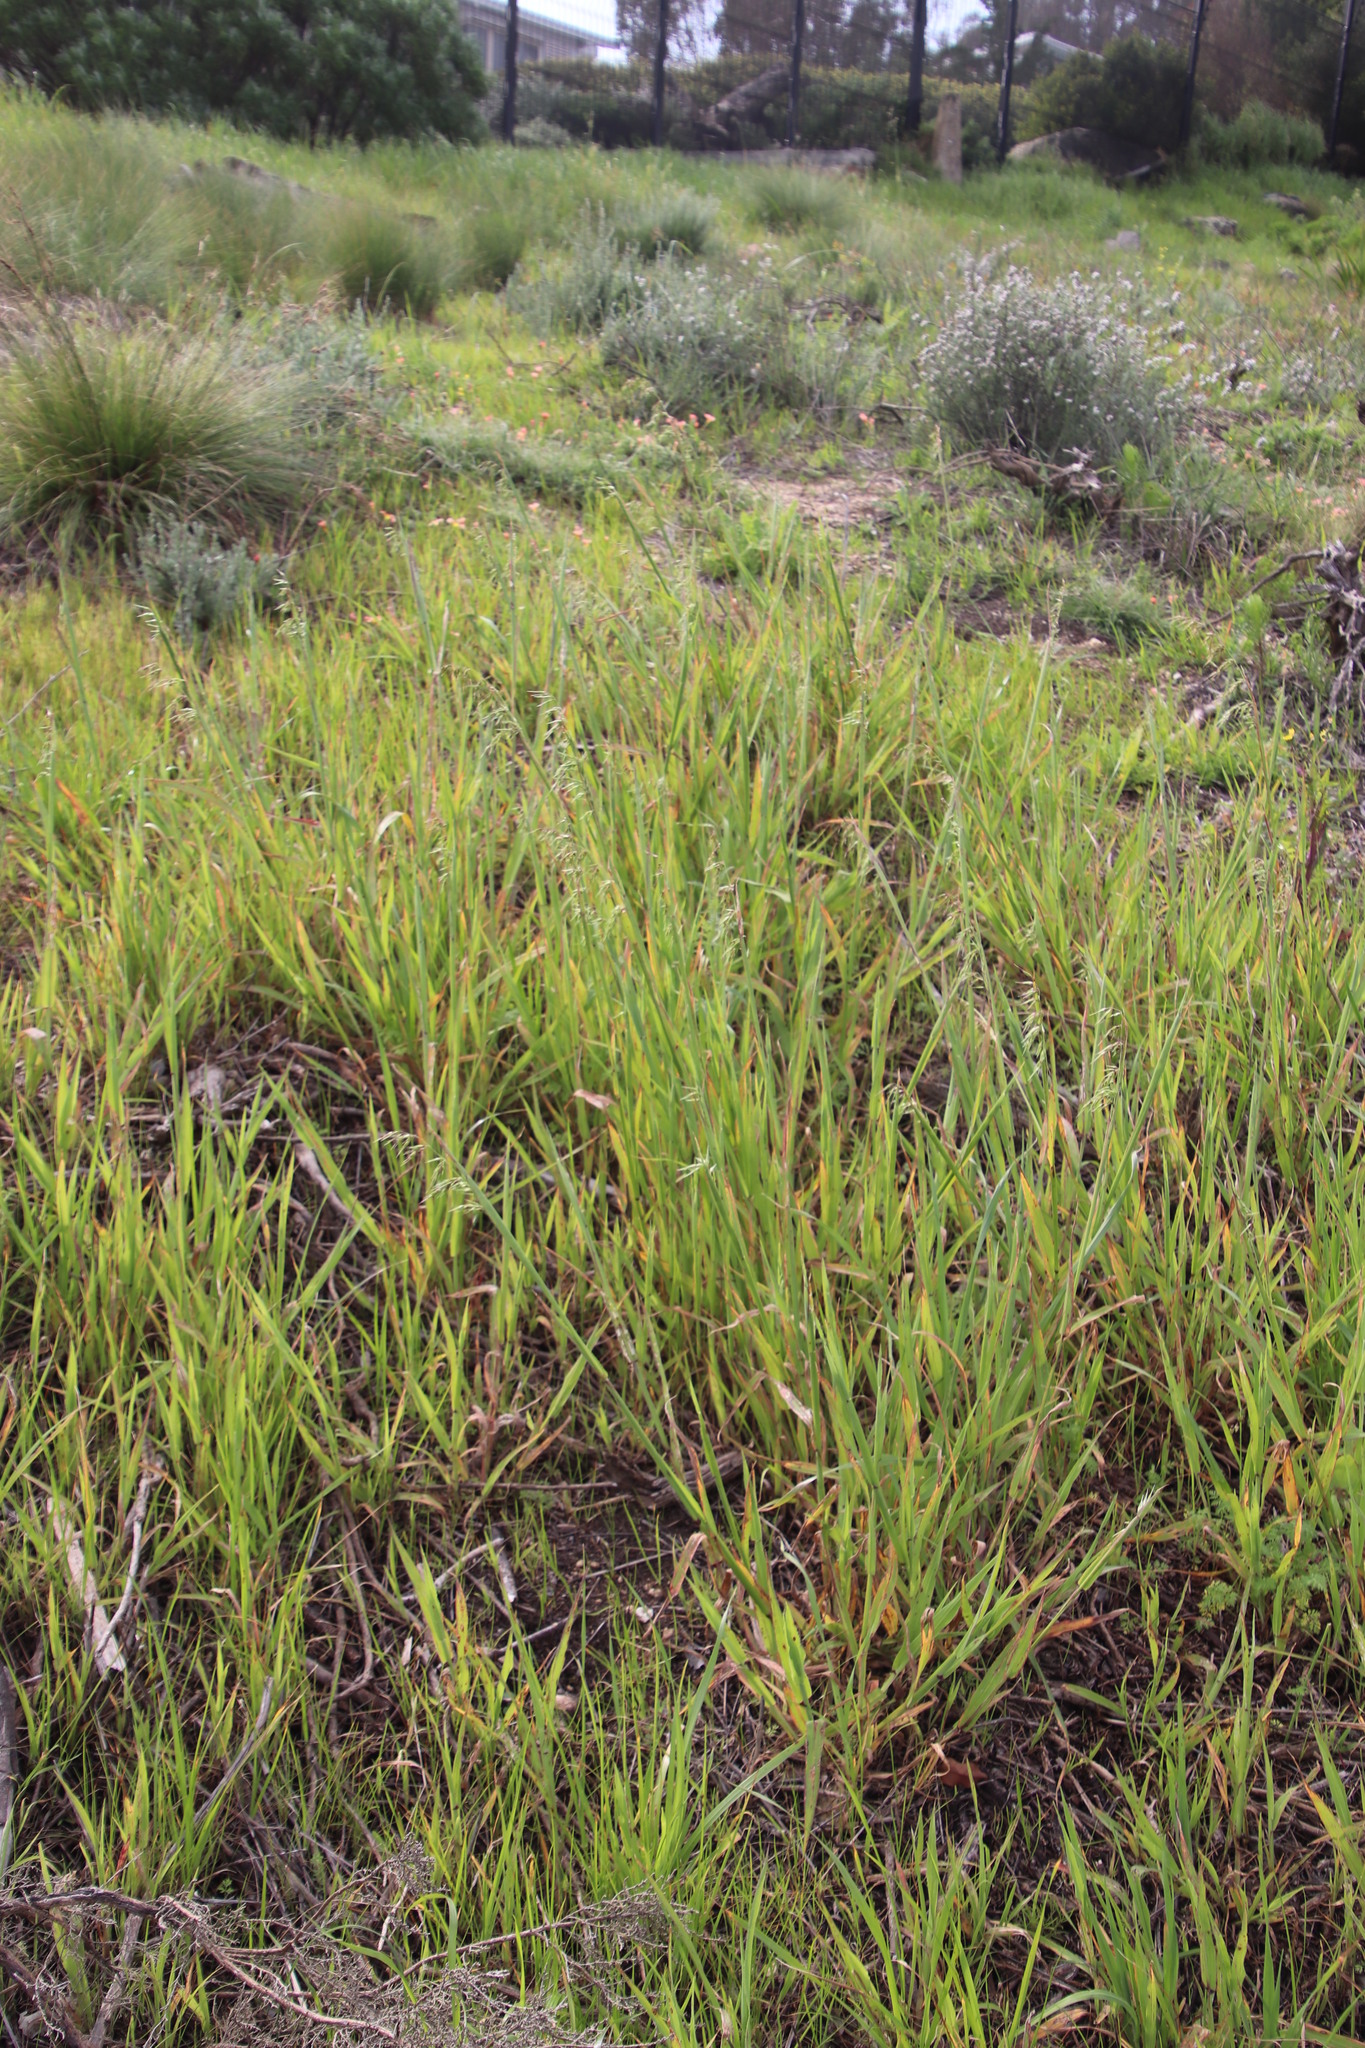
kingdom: Plantae
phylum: Tracheophyta
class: Liliopsida
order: Poales
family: Poaceae
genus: Ehrharta
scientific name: Ehrharta calycina
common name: Perennial veldtgrass
